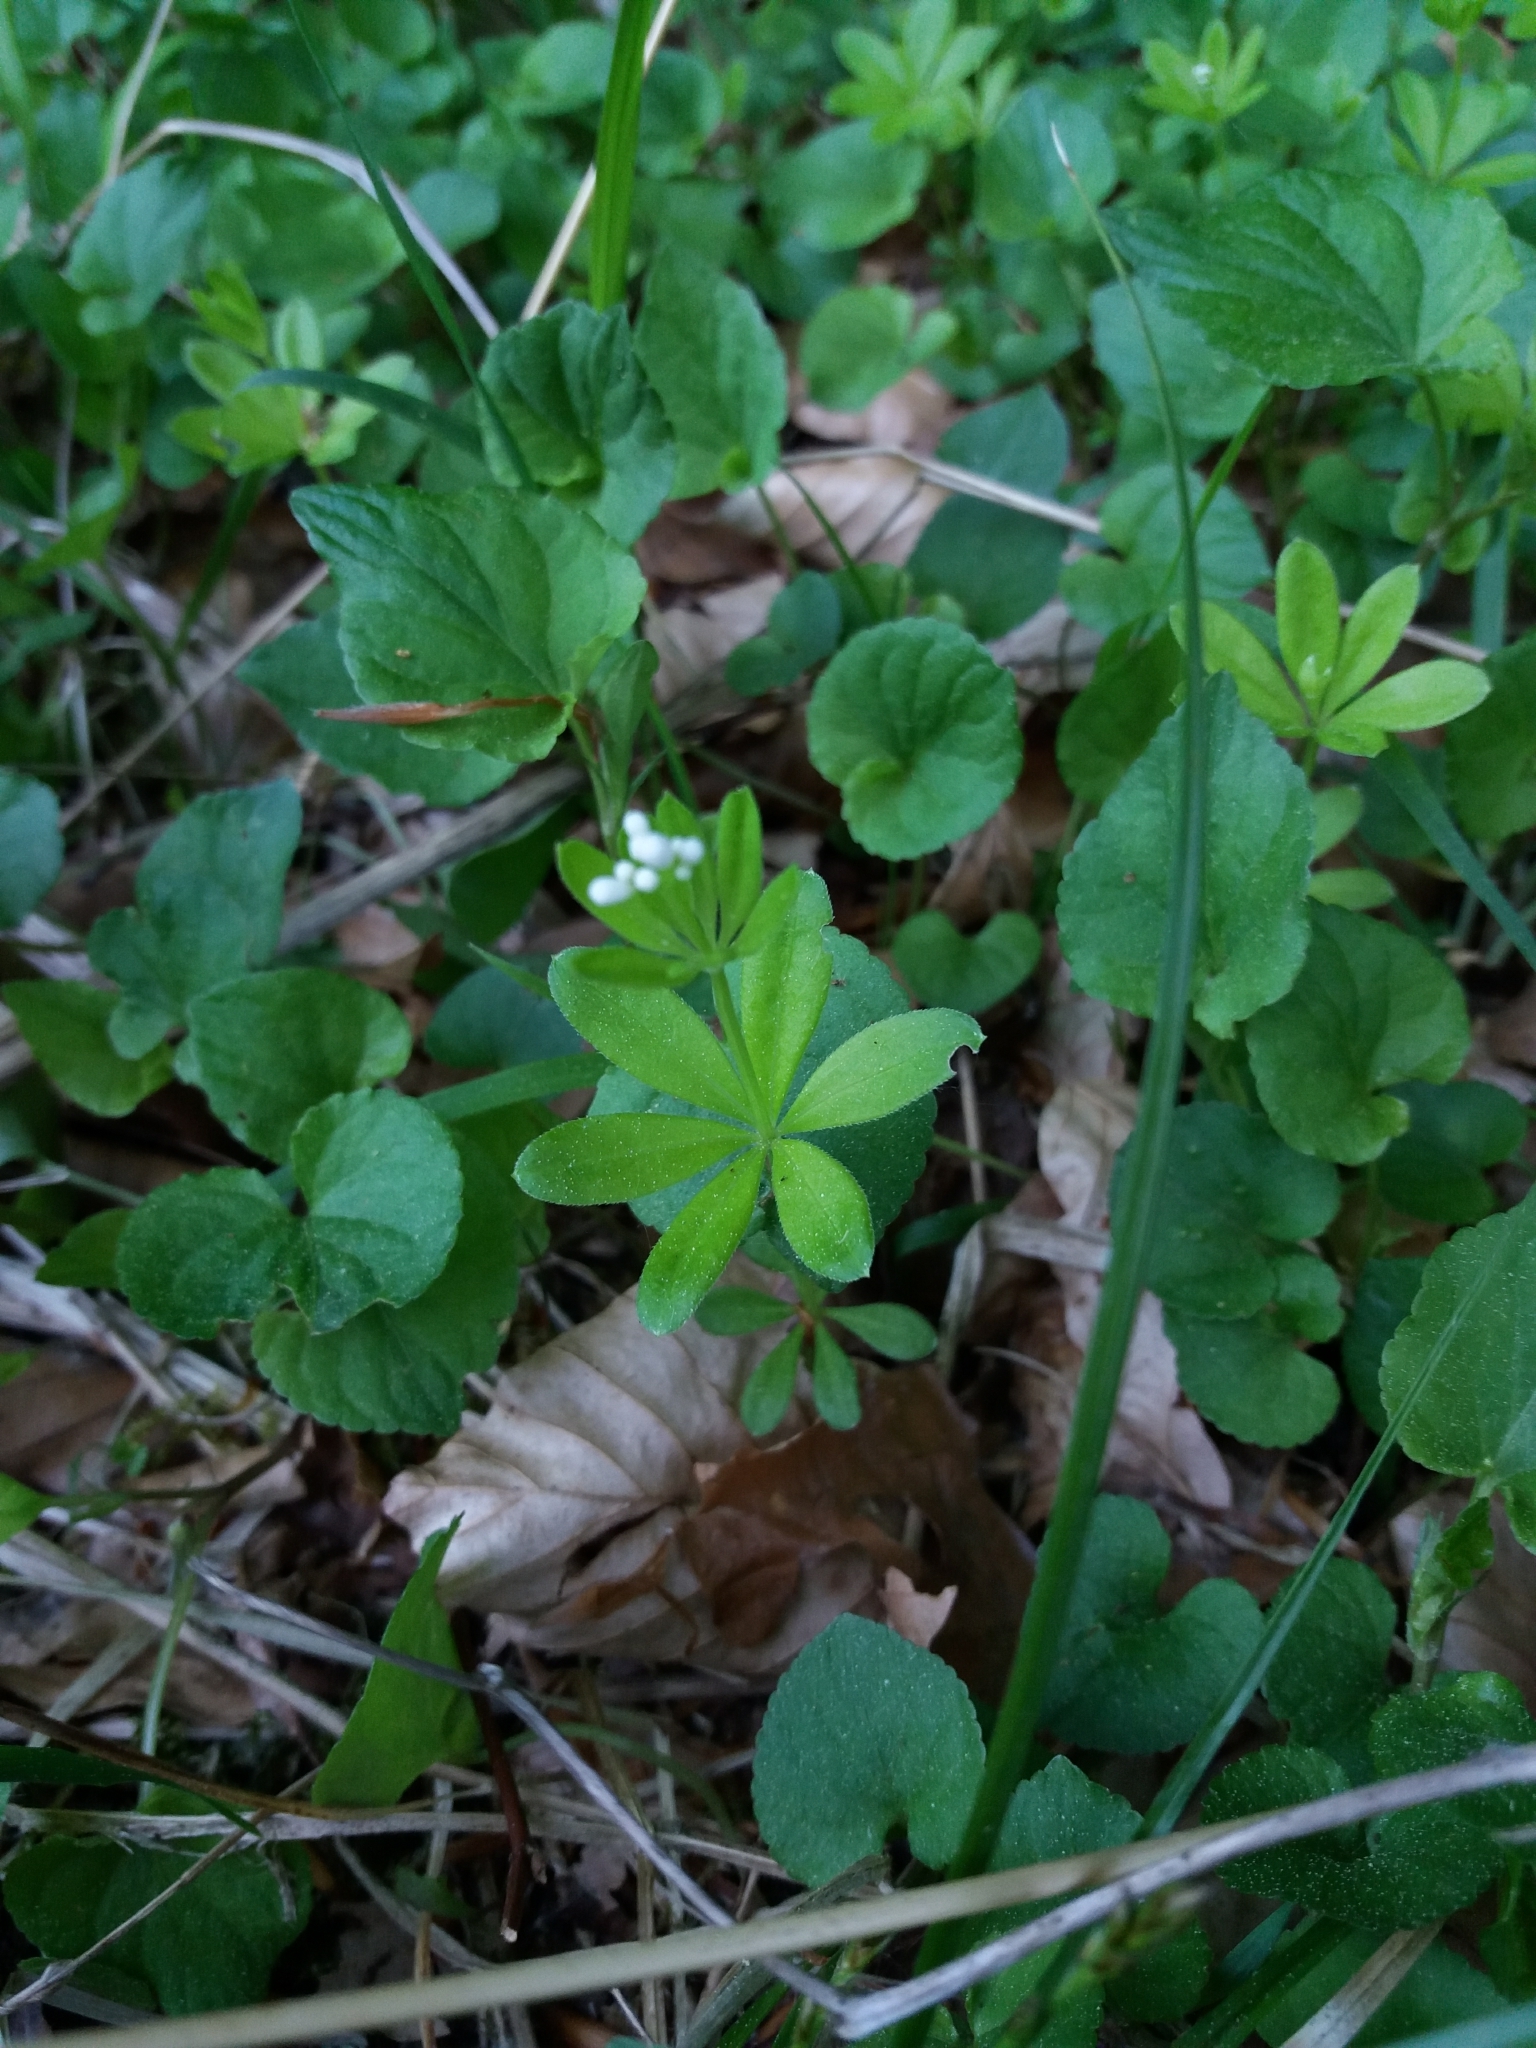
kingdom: Plantae
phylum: Tracheophyta
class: Magnoliopsida
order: Gentianales
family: Rubiaceae
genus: Galium
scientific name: Galium odoratum
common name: Sweet woodruff
